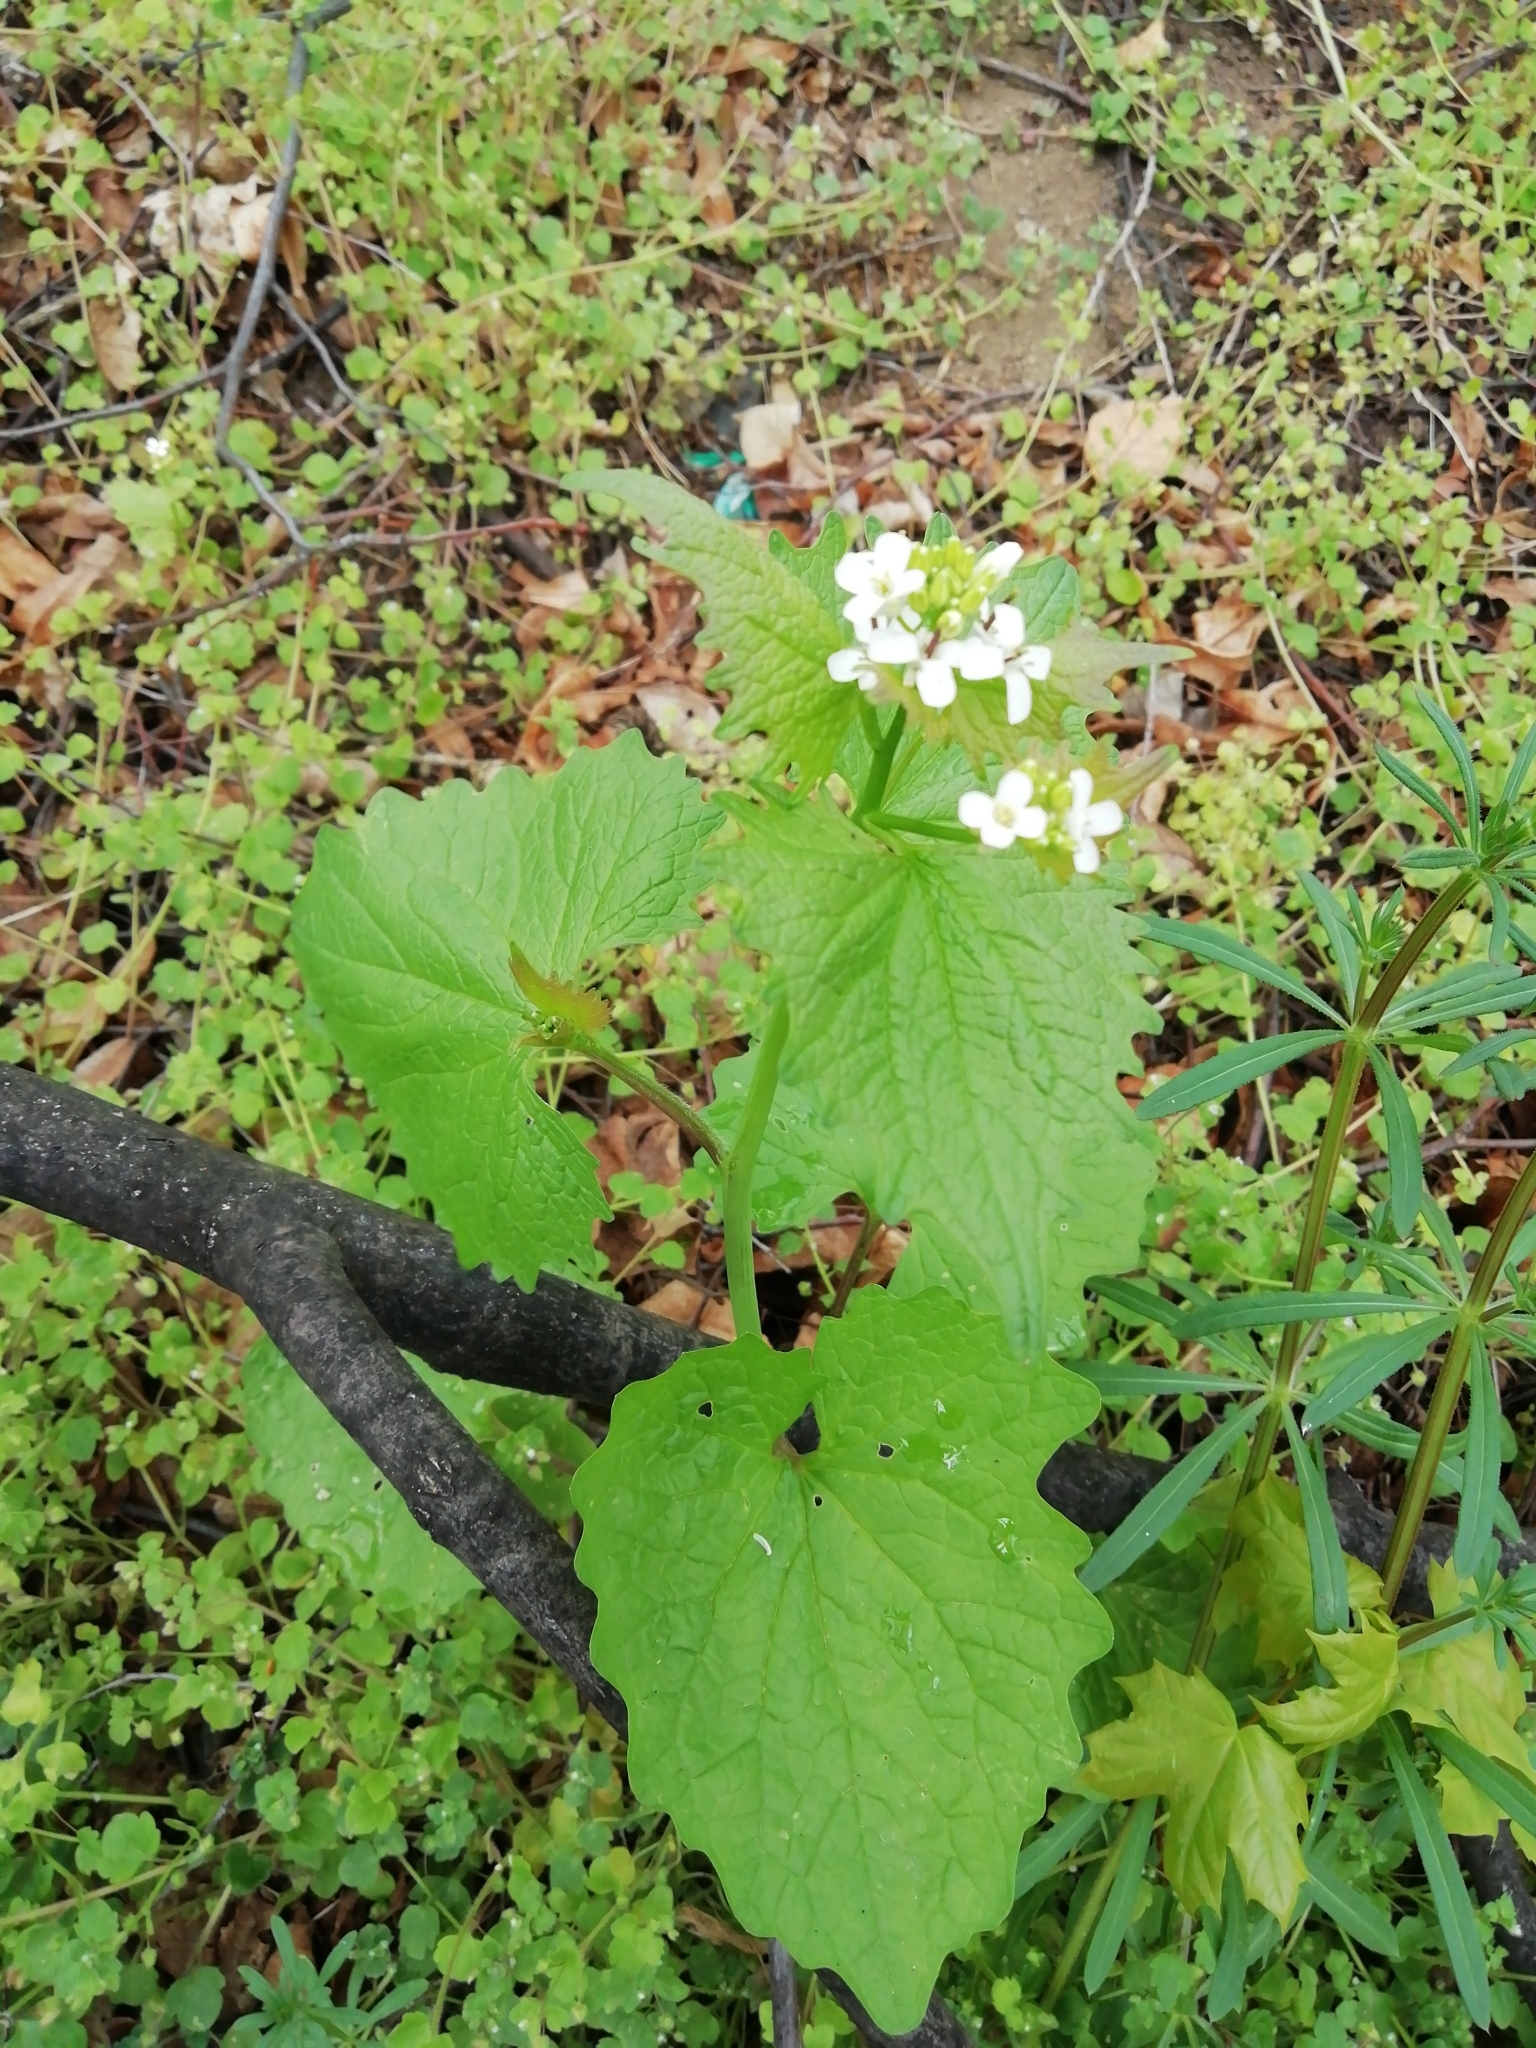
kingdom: Plantae
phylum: Tracheophyta
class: Magnoliopsida
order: Brassicales
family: Brassicaceae
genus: Alliaria
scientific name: Alliaria petiolata
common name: Garlic mustard
